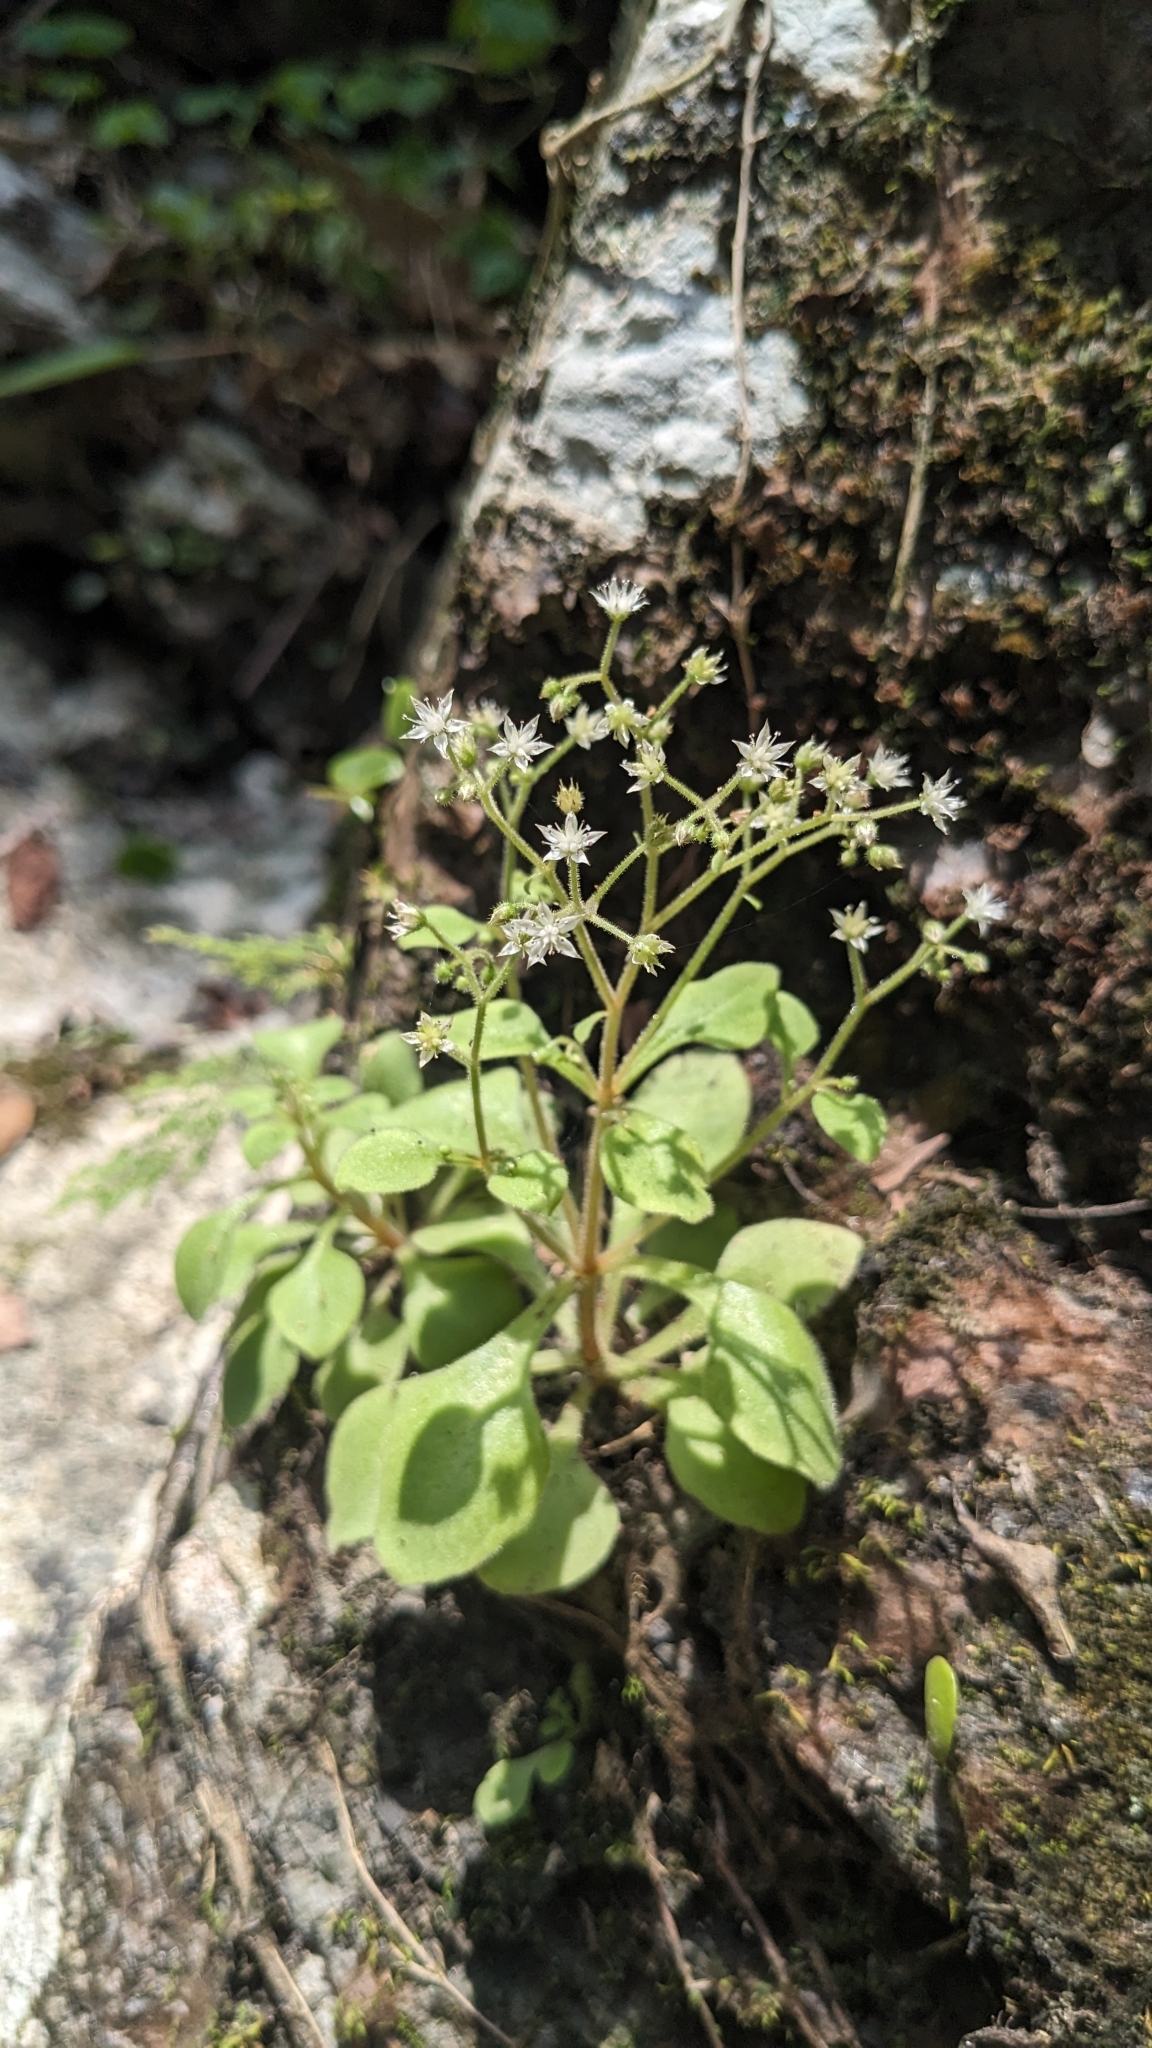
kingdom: Plantae
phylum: Tracheophyta
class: Magnoliopsida
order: Saxifragales
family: Crassulaceae
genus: Sedum
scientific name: Sedum drymarioides
